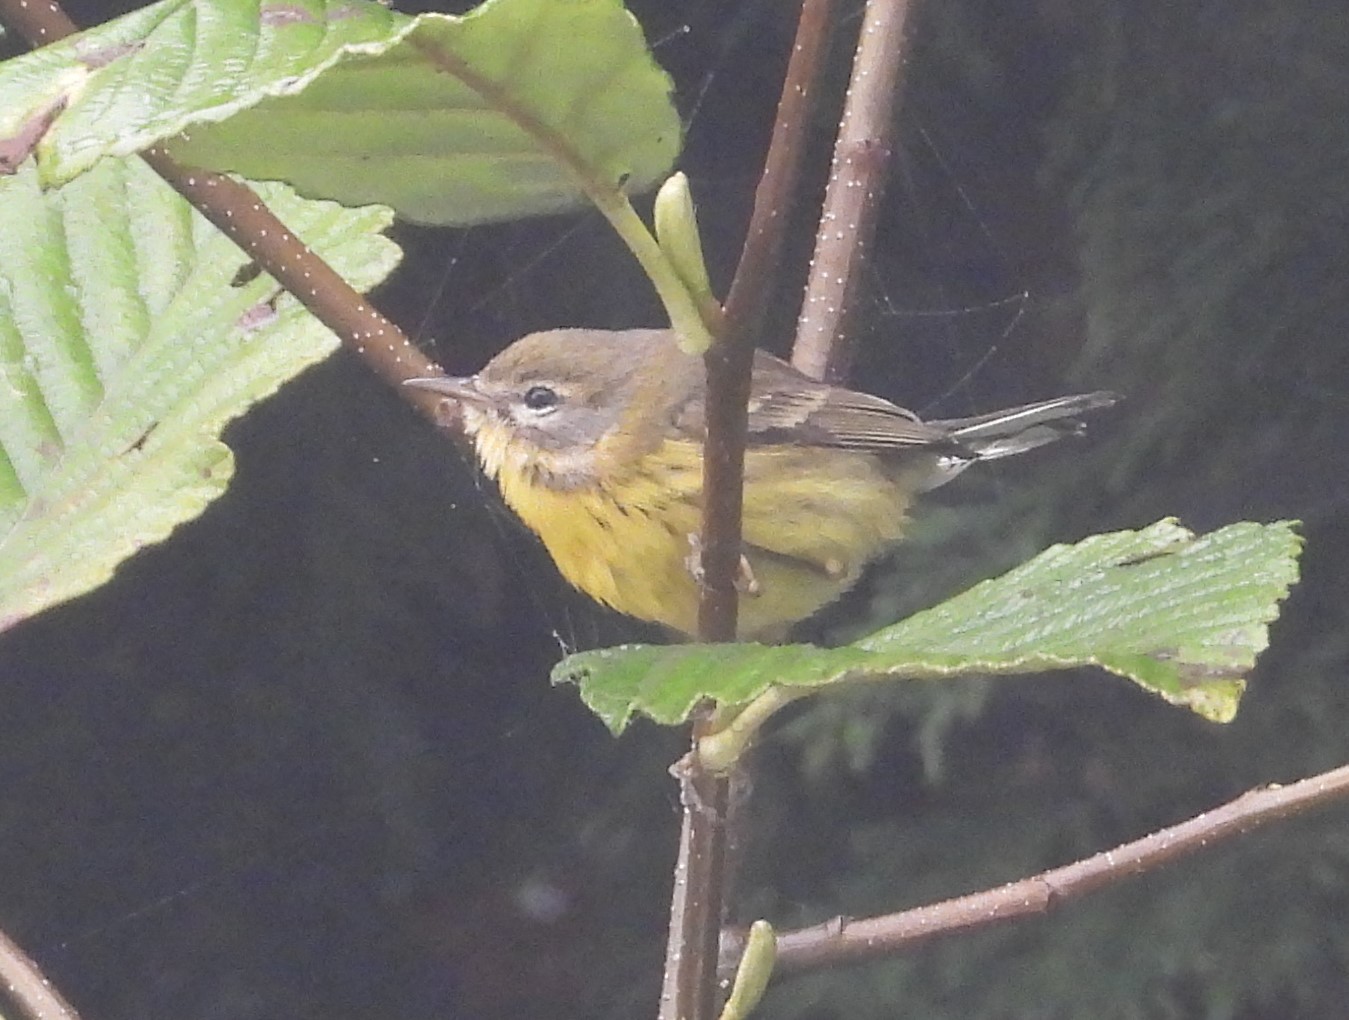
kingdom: Animalia
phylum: Chordata
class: Aves
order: Passeriformes
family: Parulidae
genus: Setophaga
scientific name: Setophaga discolor
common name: Prairie warbler
